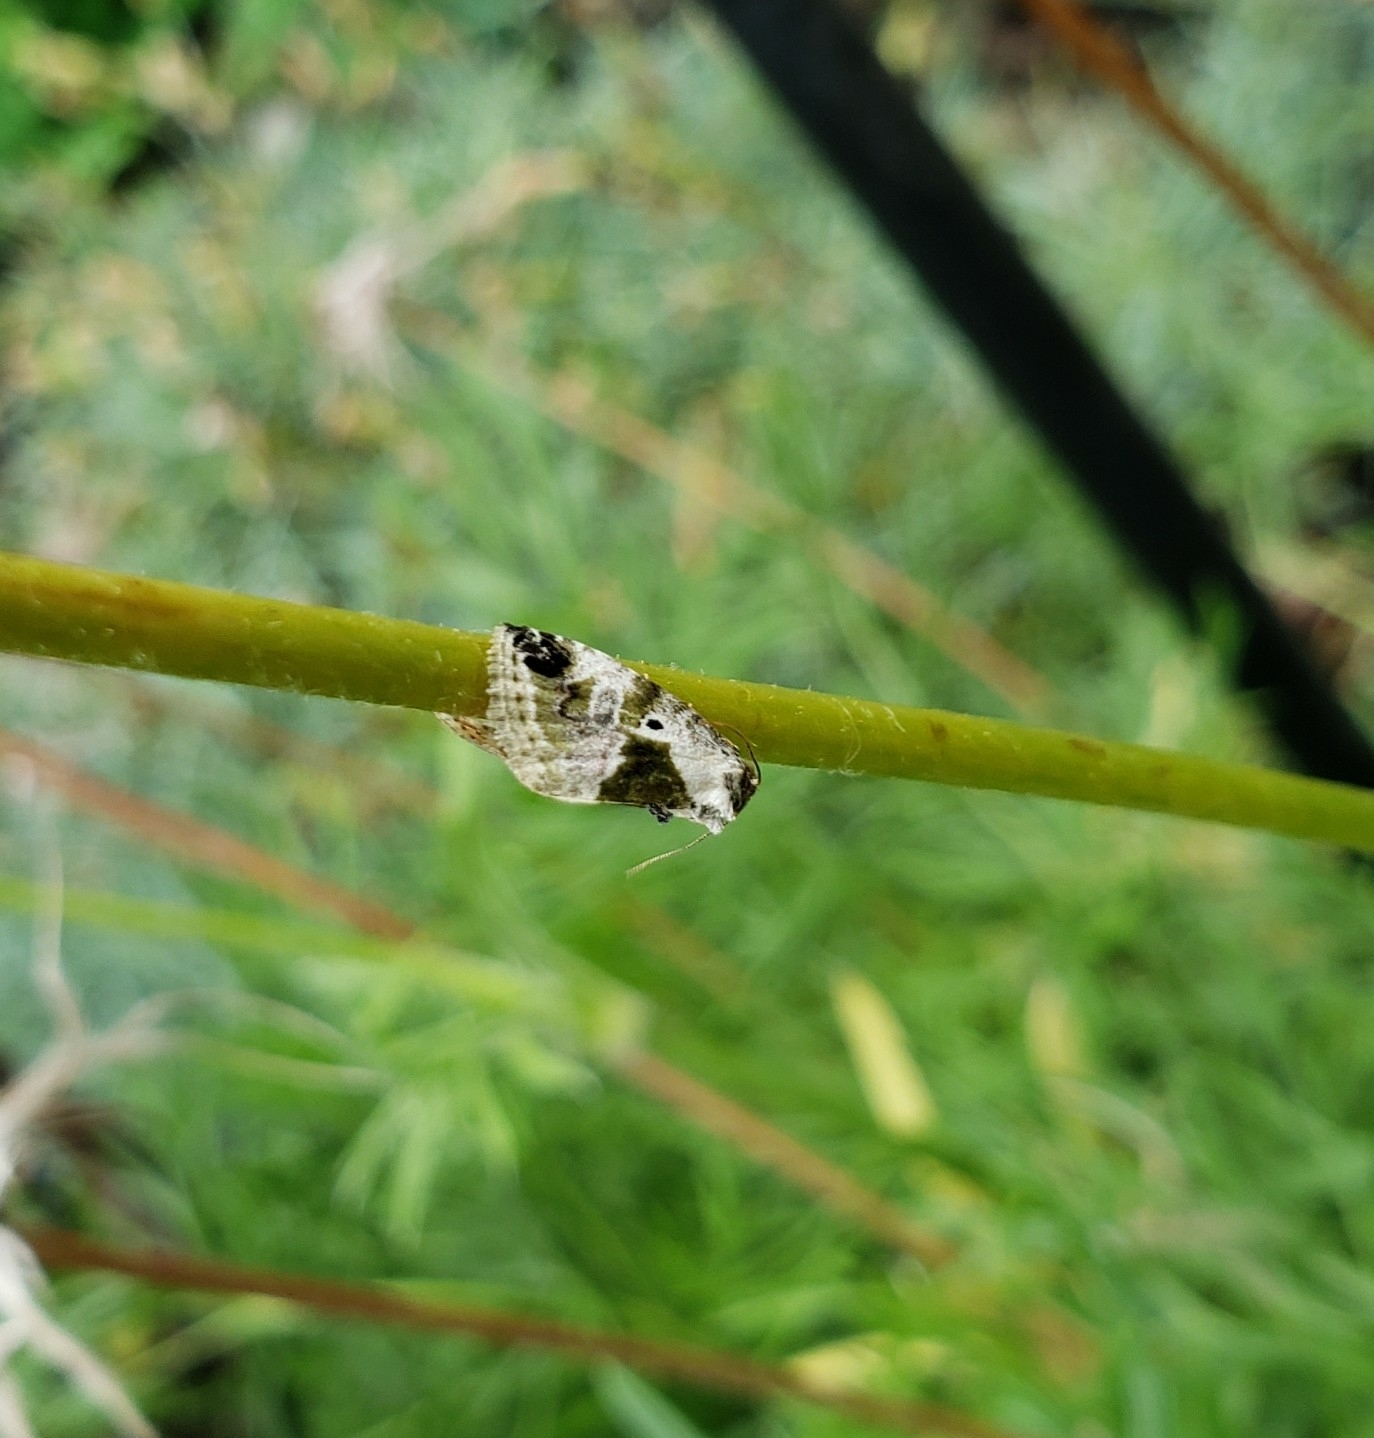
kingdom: Animalia
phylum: Arthropoda
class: Insecta
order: Lepidoptera
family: Noctuidae
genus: Maliattha
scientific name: Maliattha synochitis
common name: Black-dotted glyph
